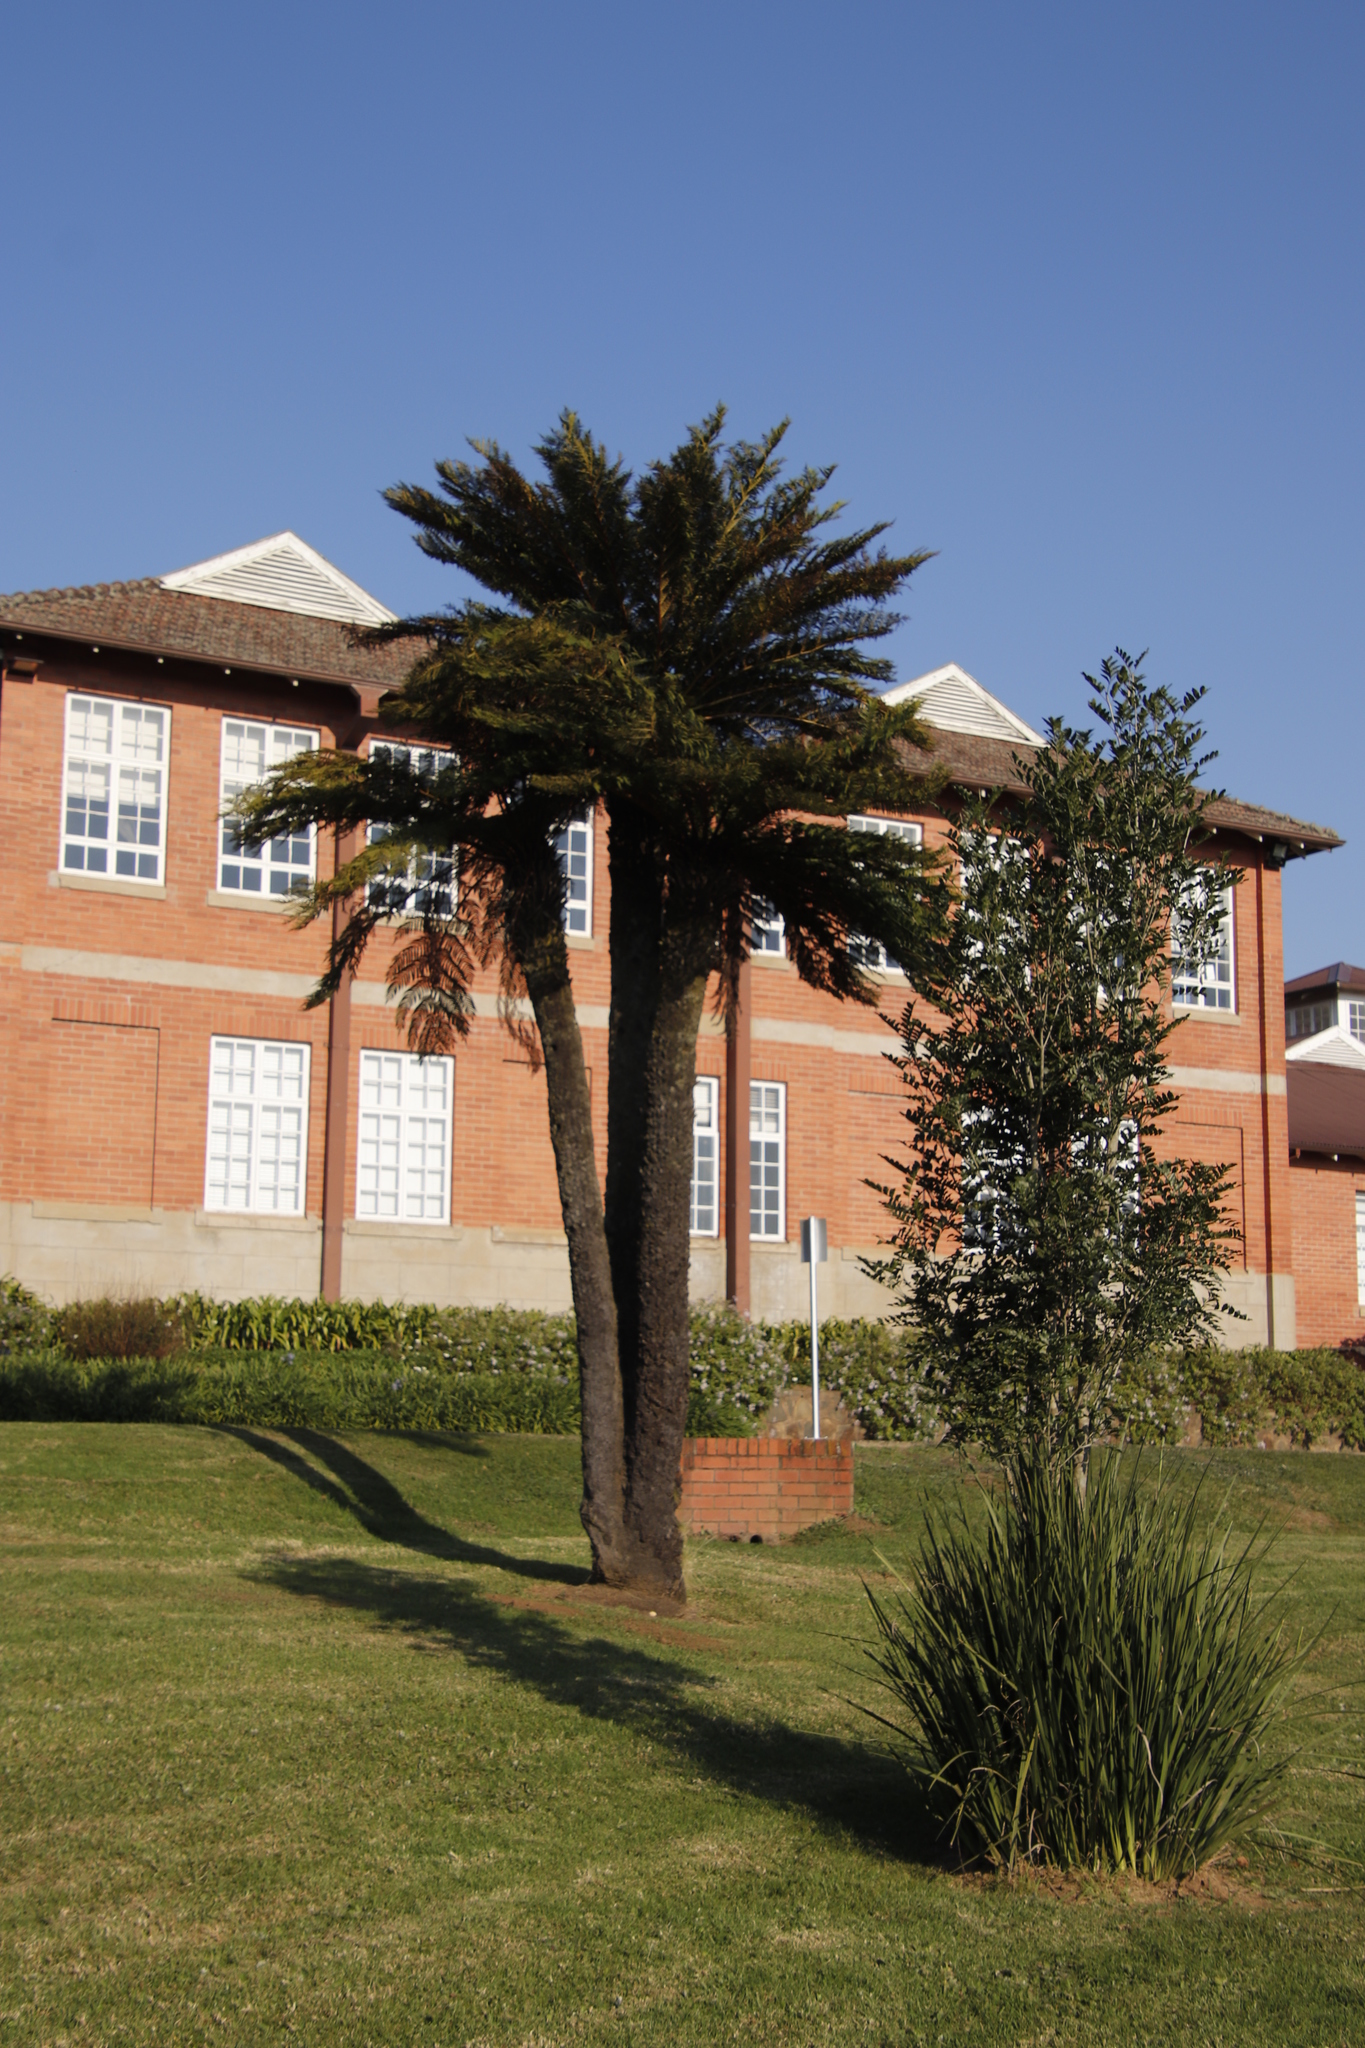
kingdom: Plantae
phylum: Tracheophyta
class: Polypodiopsida
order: Cyatheales
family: Cyatheaceae
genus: Alsophila
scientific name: Alsophila dregei
